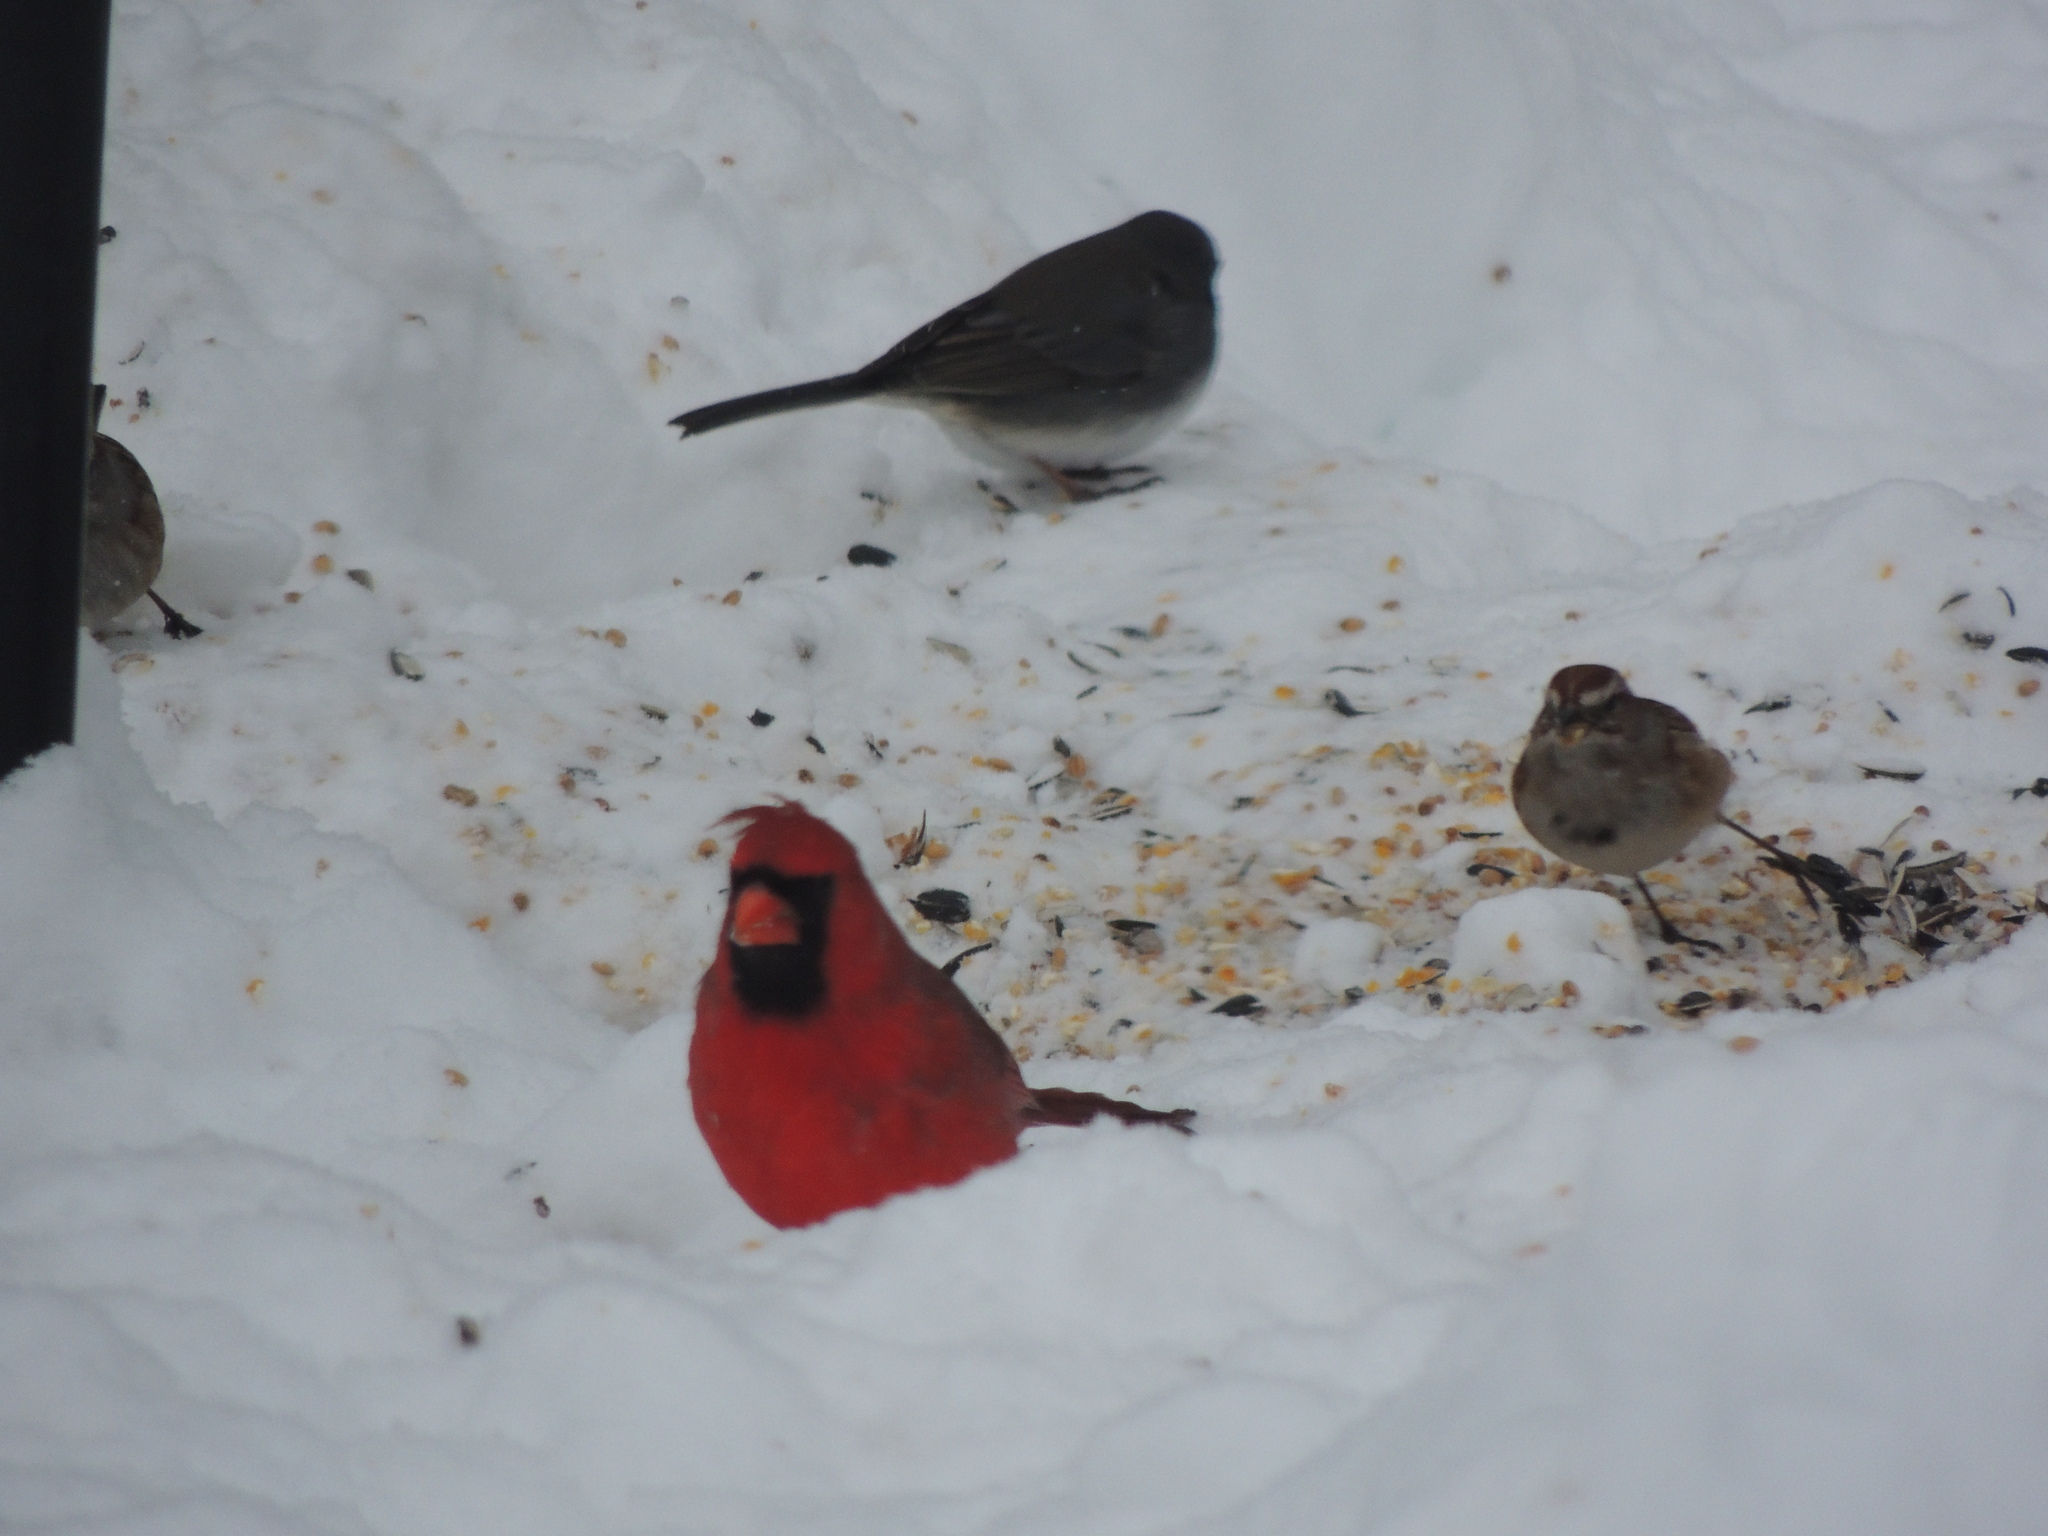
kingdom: Animalia
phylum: Chordata
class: Aves
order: Passeriformes
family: Cardinalidae
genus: Cardinalis
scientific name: Cardinalis cardinalis
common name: Northern cardinal
